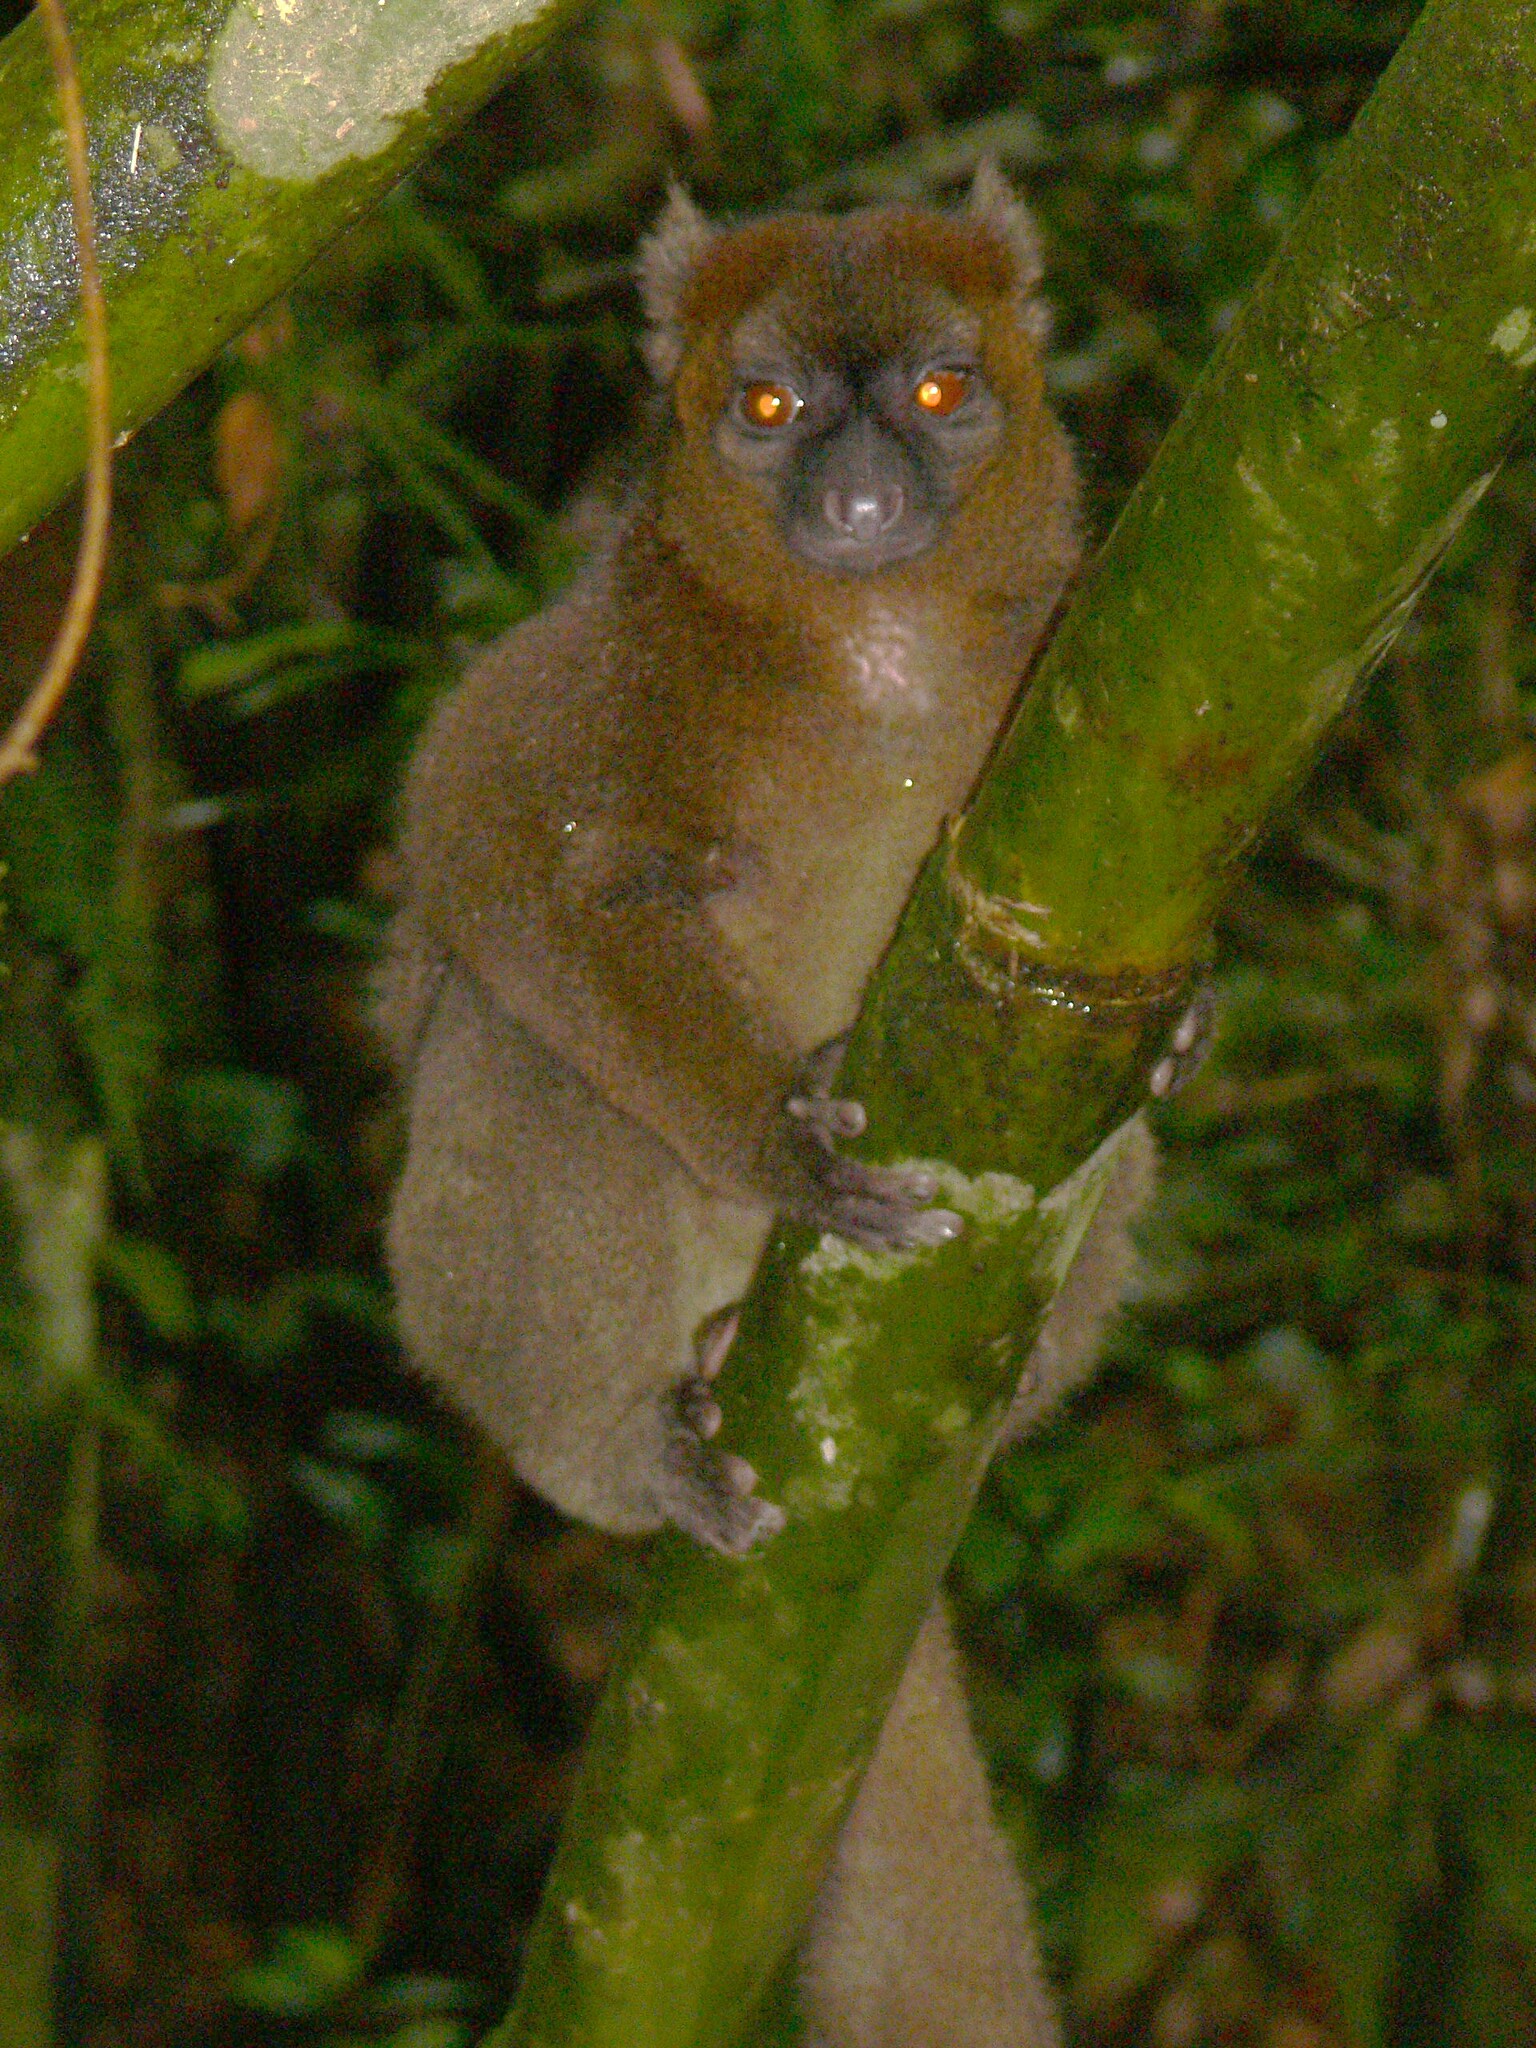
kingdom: Animalia
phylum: Chordata
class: Mammalia
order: Primates
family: Lemuridae
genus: Prolemur
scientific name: Prolemur simus
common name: Greater bamboo lemur
